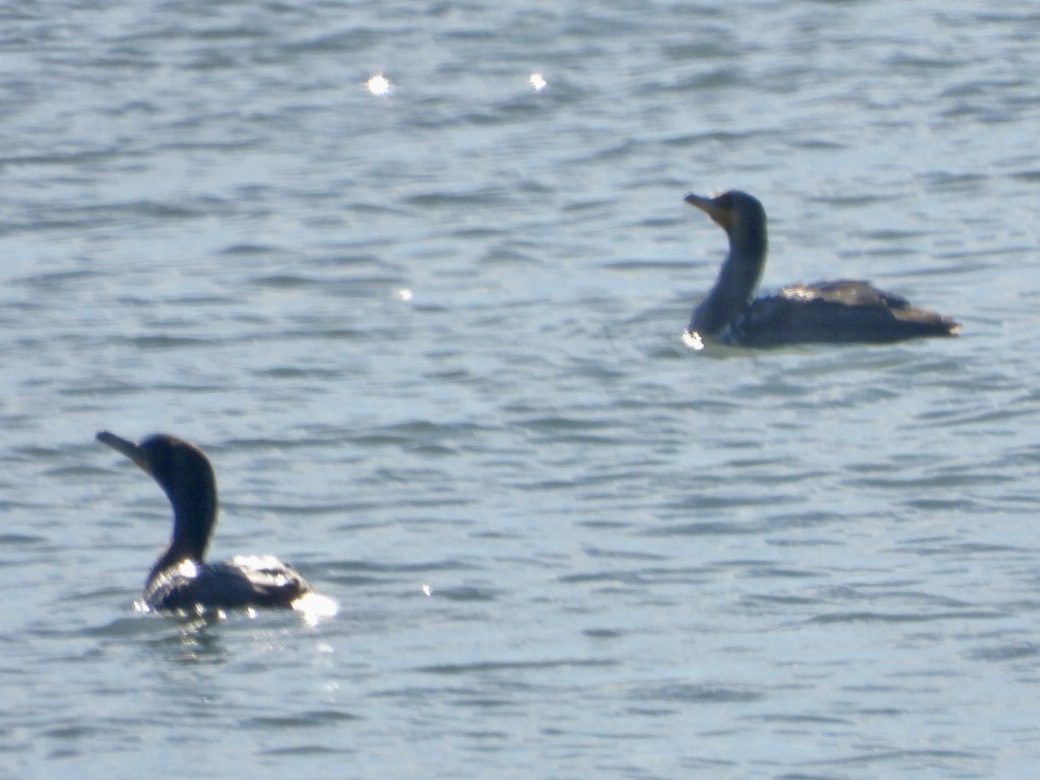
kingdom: Animalia
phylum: Chordata
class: Aves
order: Suliformes
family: Phalacrocoracidae
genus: Phalacrocorax
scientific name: Phalacrocorax auritus
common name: Double-crested cormorant
